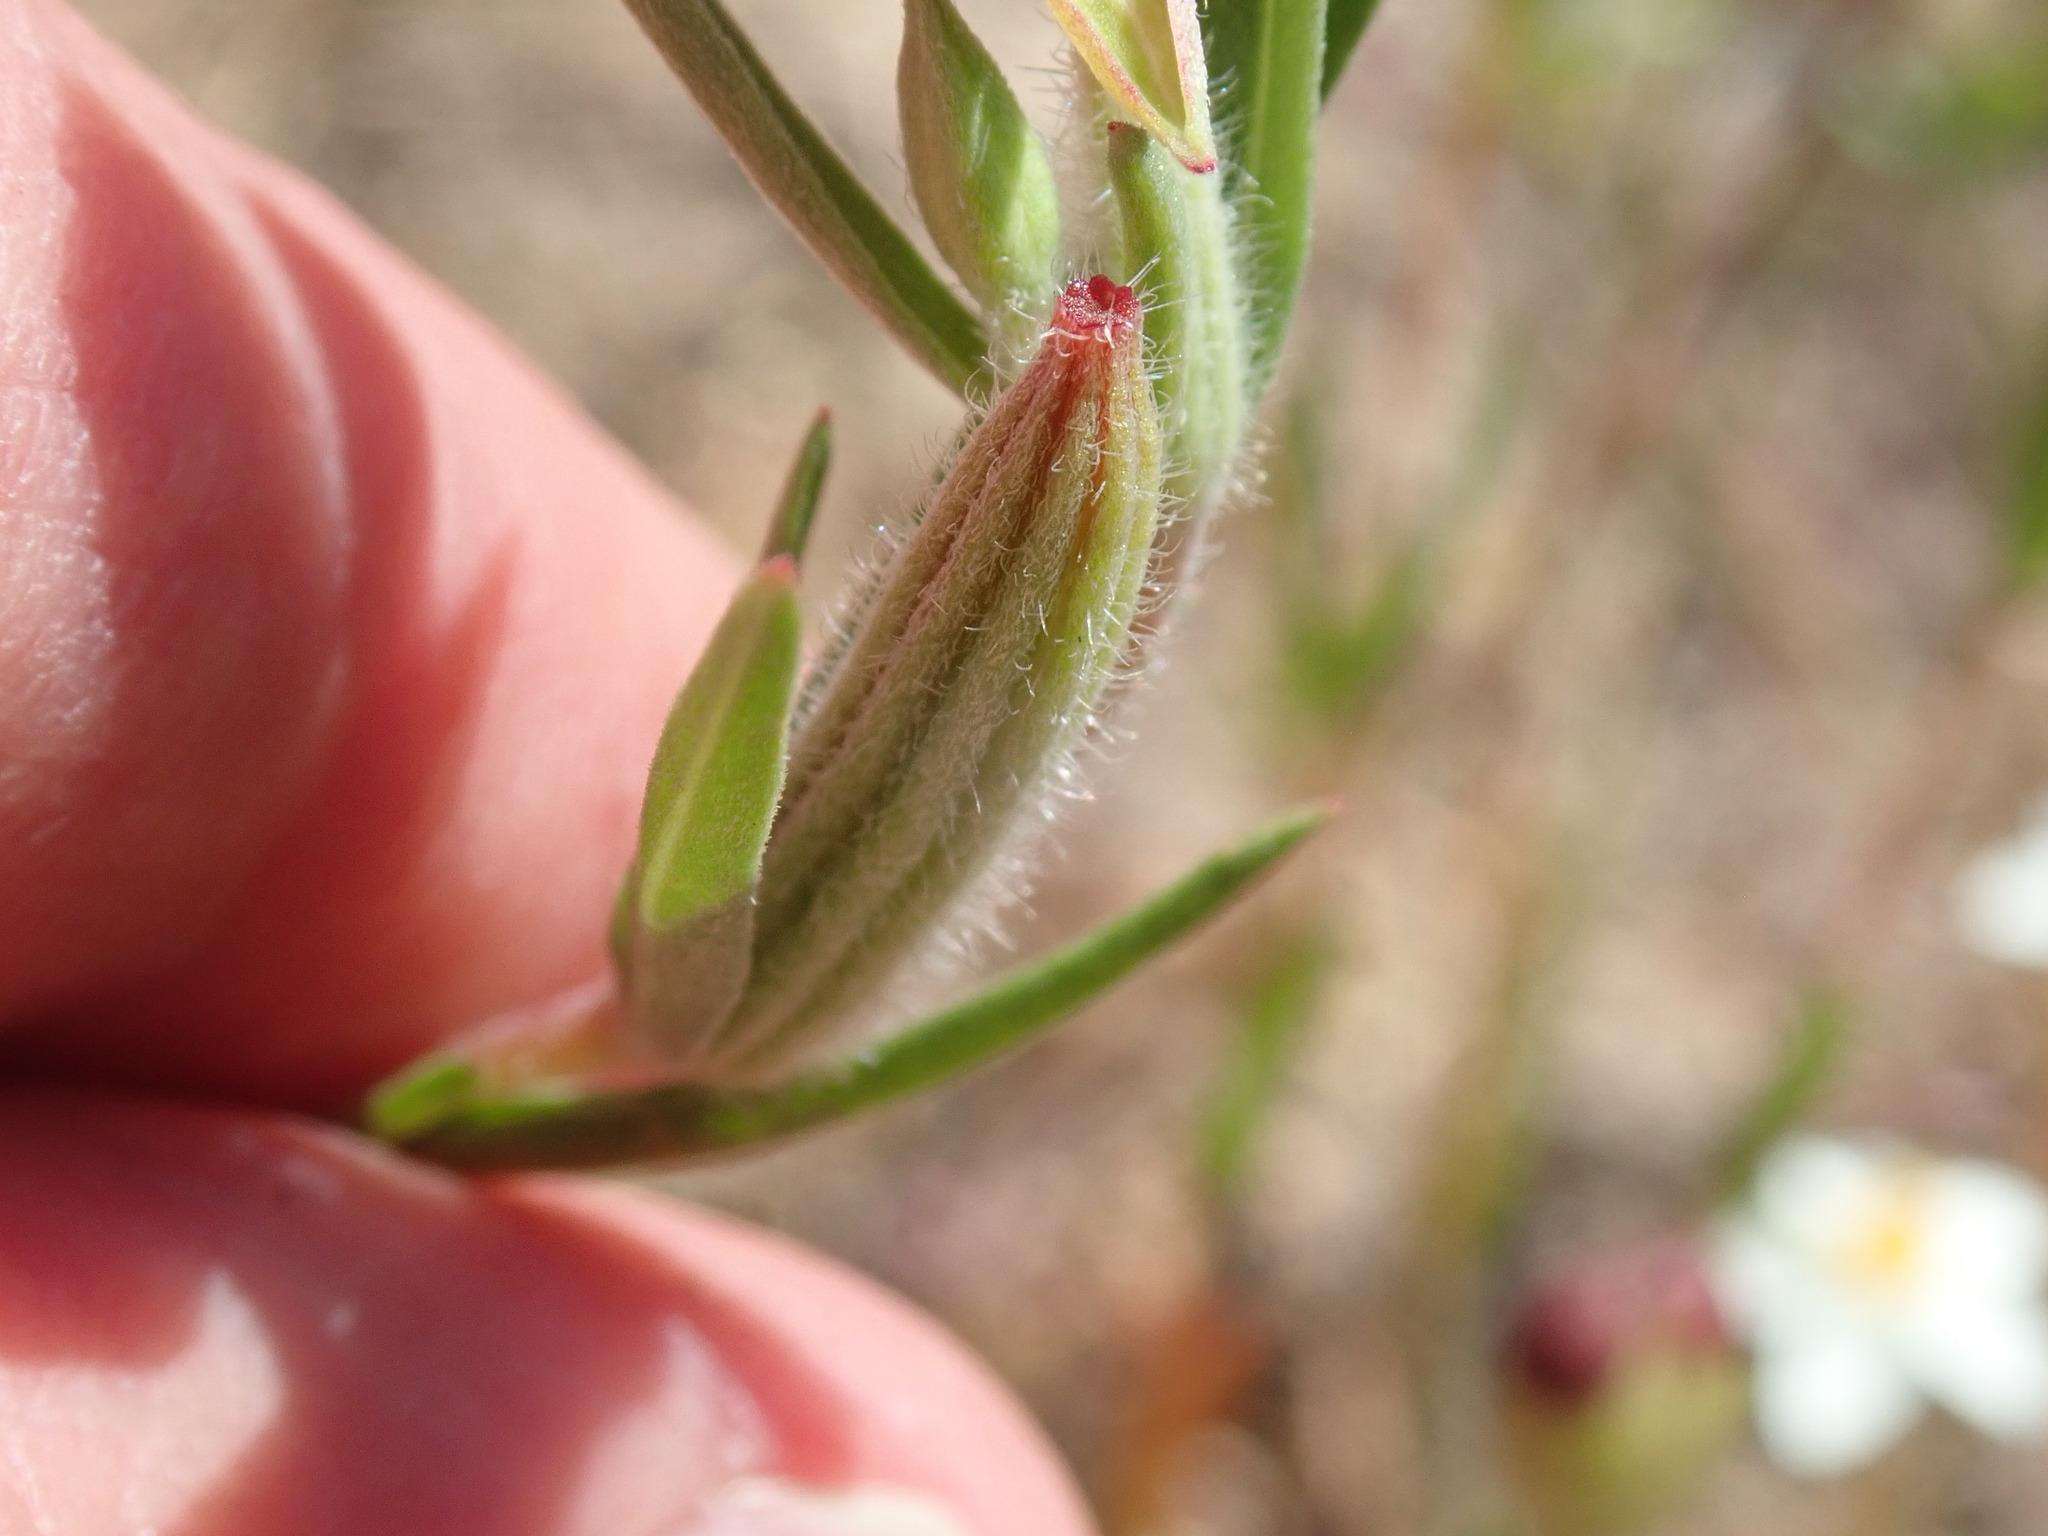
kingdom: Plantae
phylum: Tracheophyta
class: Magnoliopsida
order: Myrtales
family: Onagraceae
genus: Clarkia
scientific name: Clarkia purpurea
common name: Purple clarkia
